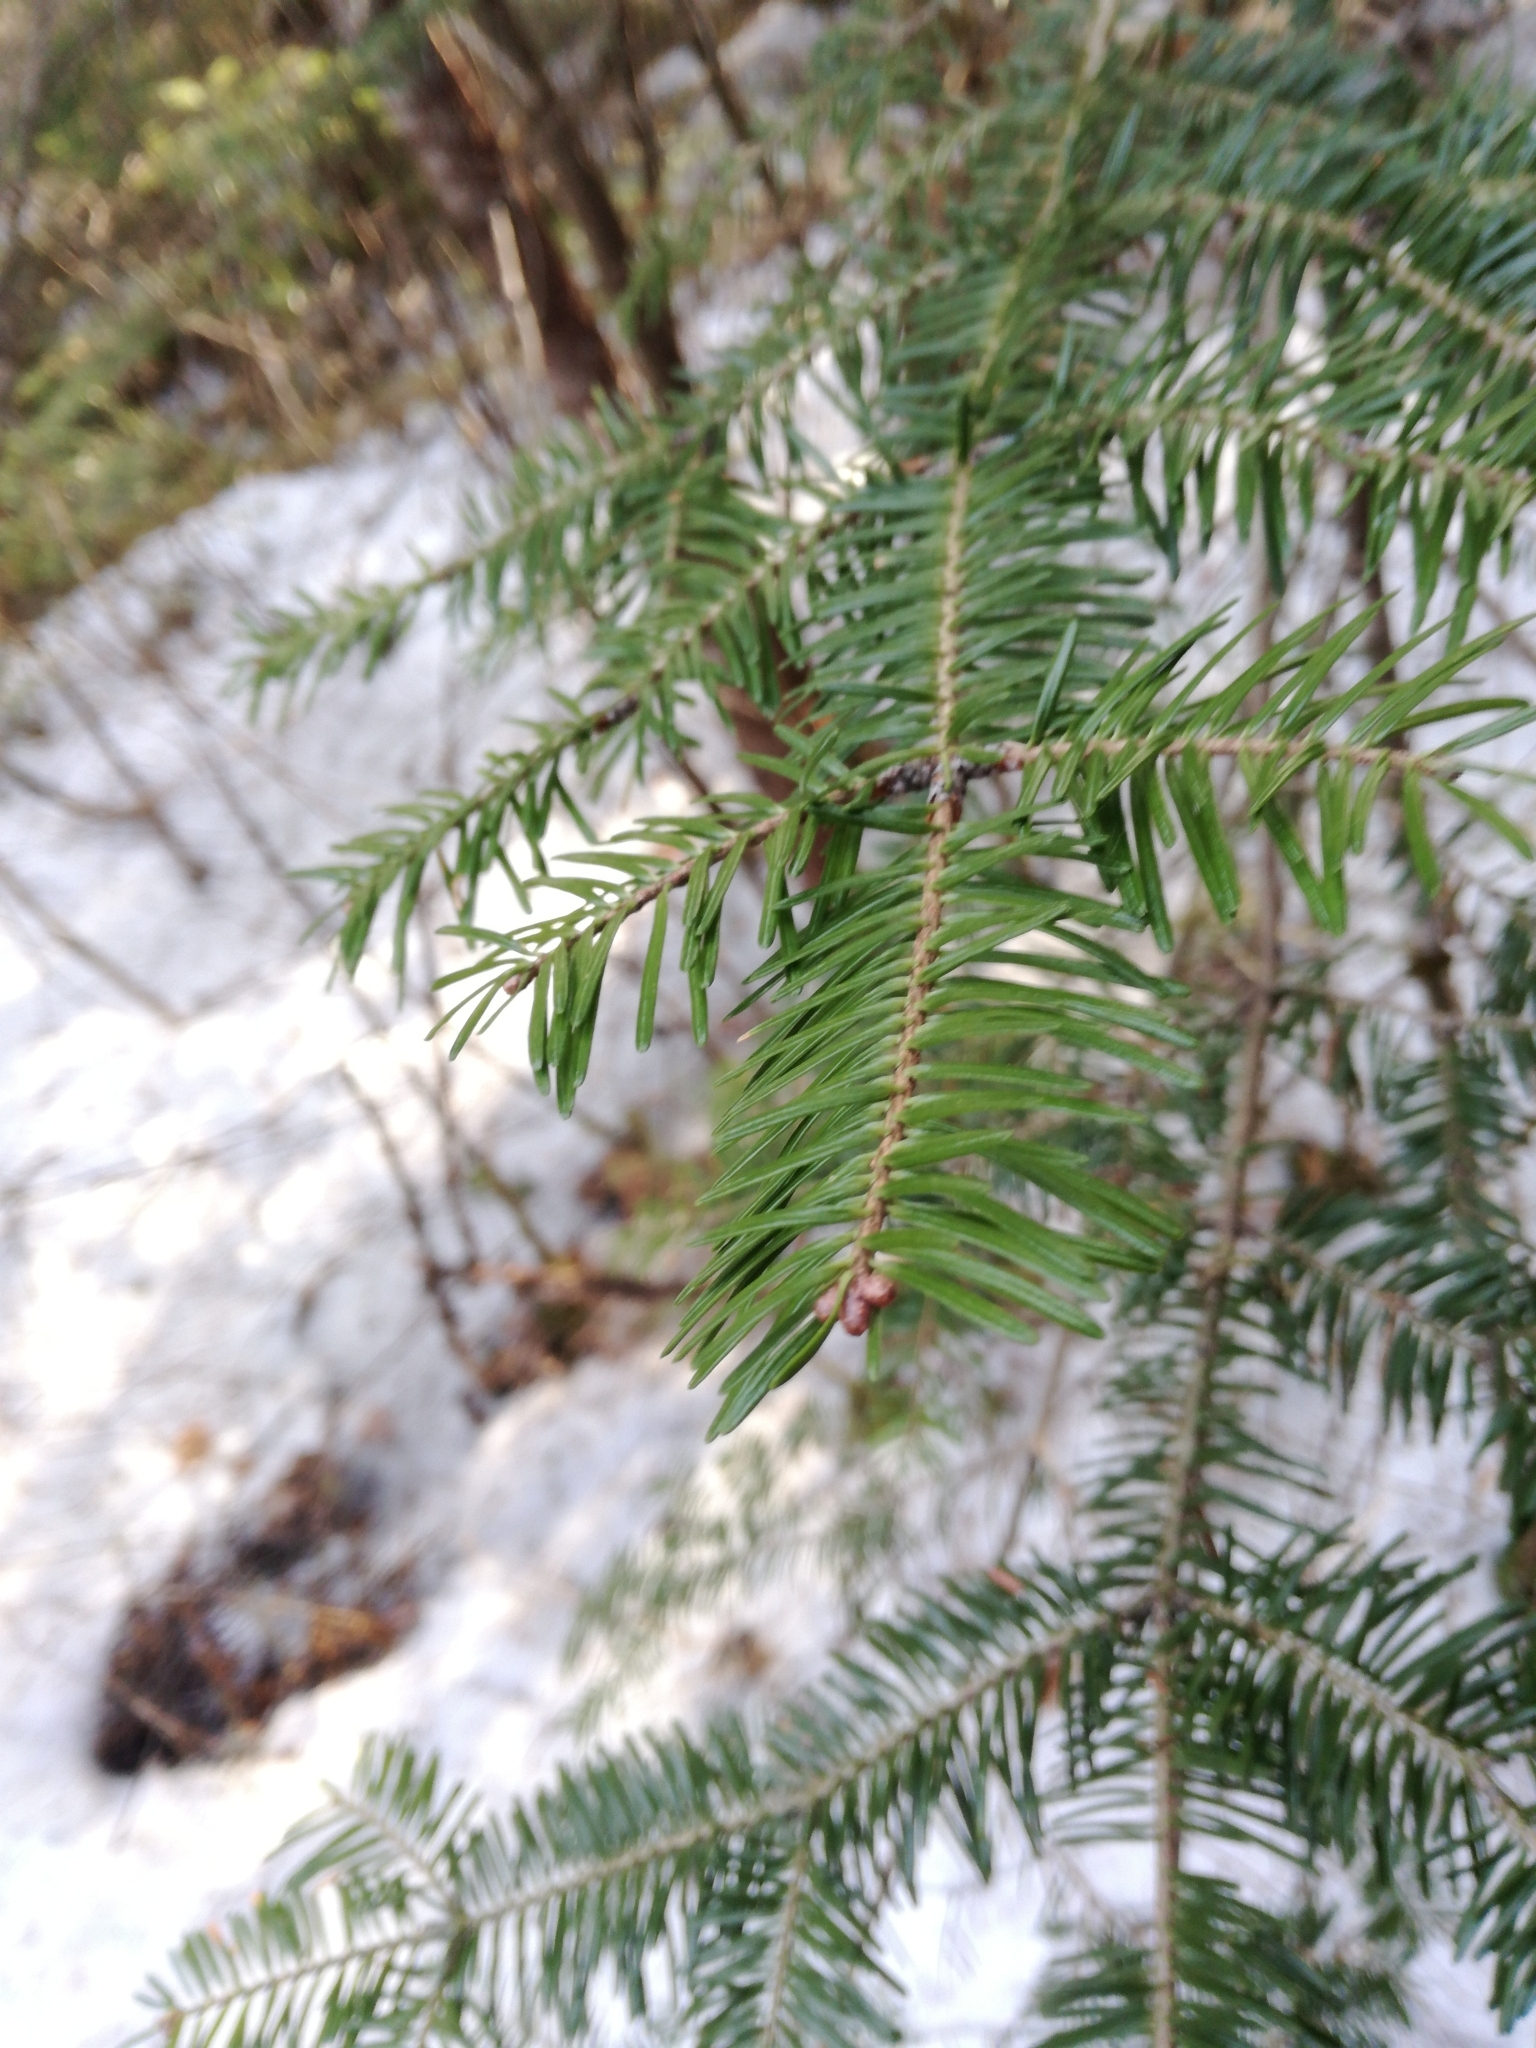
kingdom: Plantae
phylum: Tracheophyta
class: Pinopsida
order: Pinales
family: Pinaceae
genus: Abies
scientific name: Abies balsamea
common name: Balsam fir
